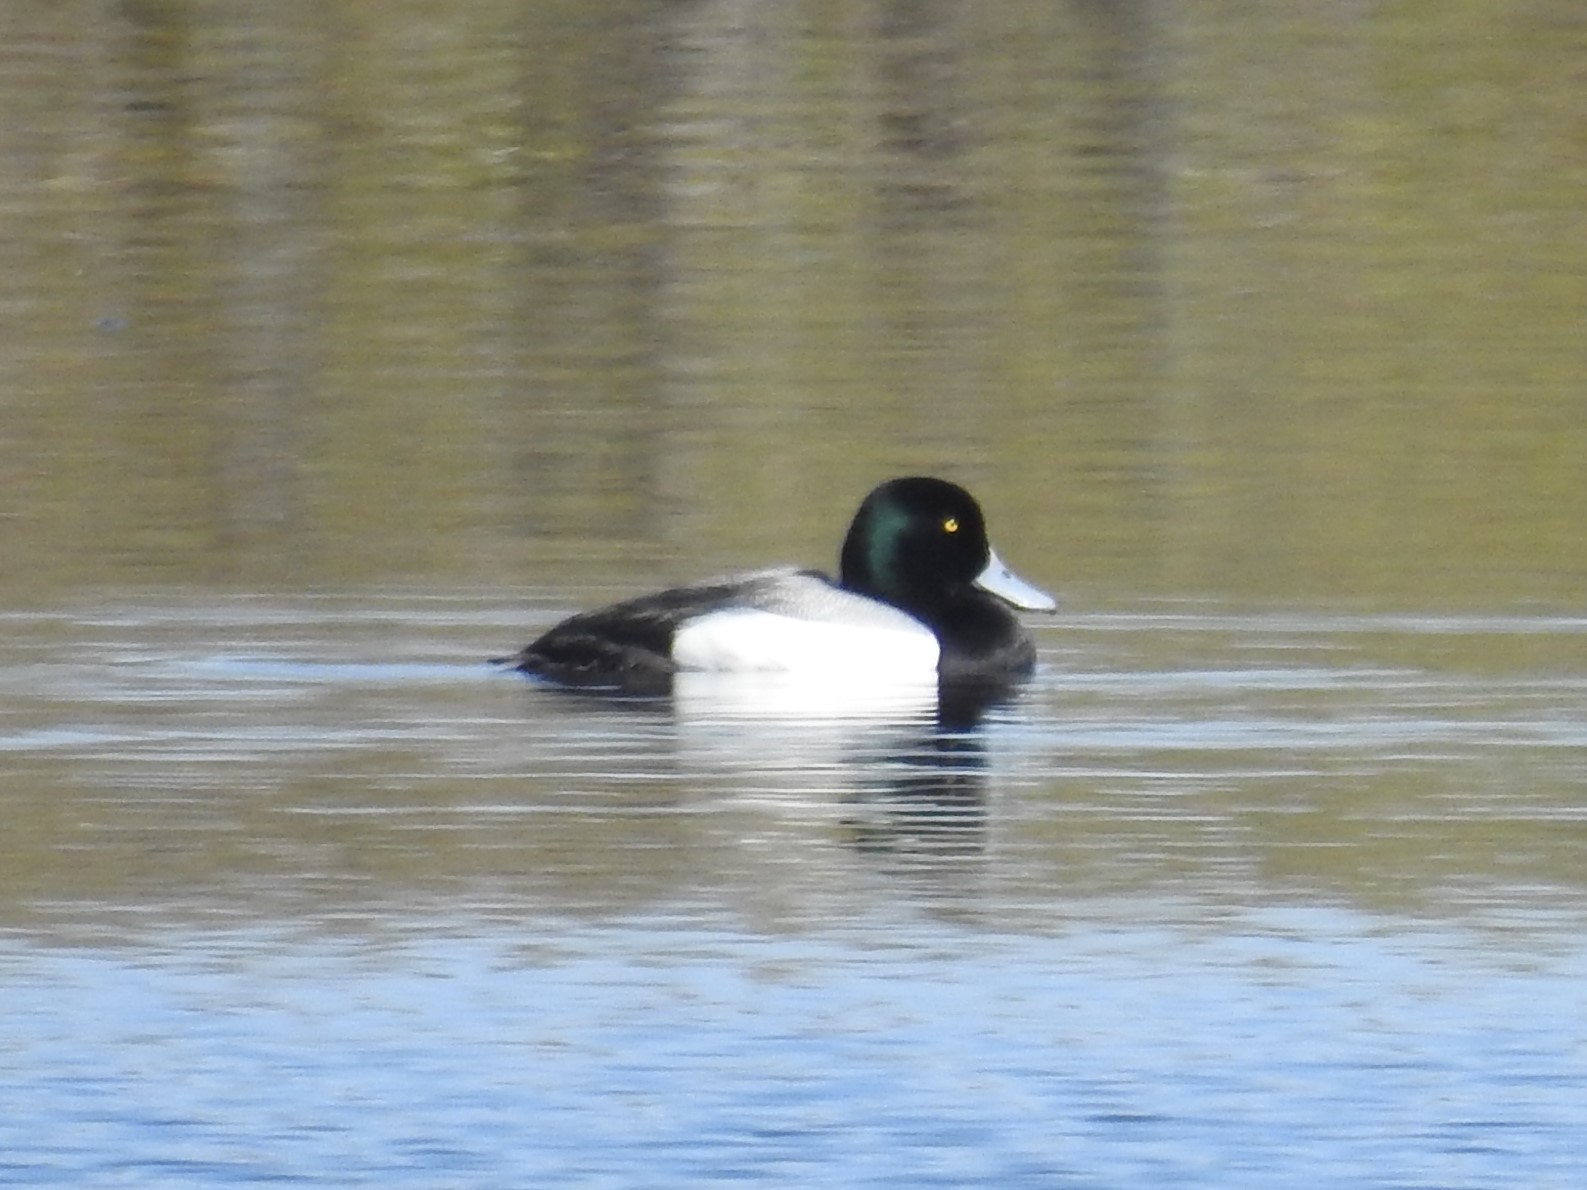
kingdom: Animalia
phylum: Chordata
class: Aves
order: Anseriformes
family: Anatidae
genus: Aythya
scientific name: Aythya marila
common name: Greater scaup
